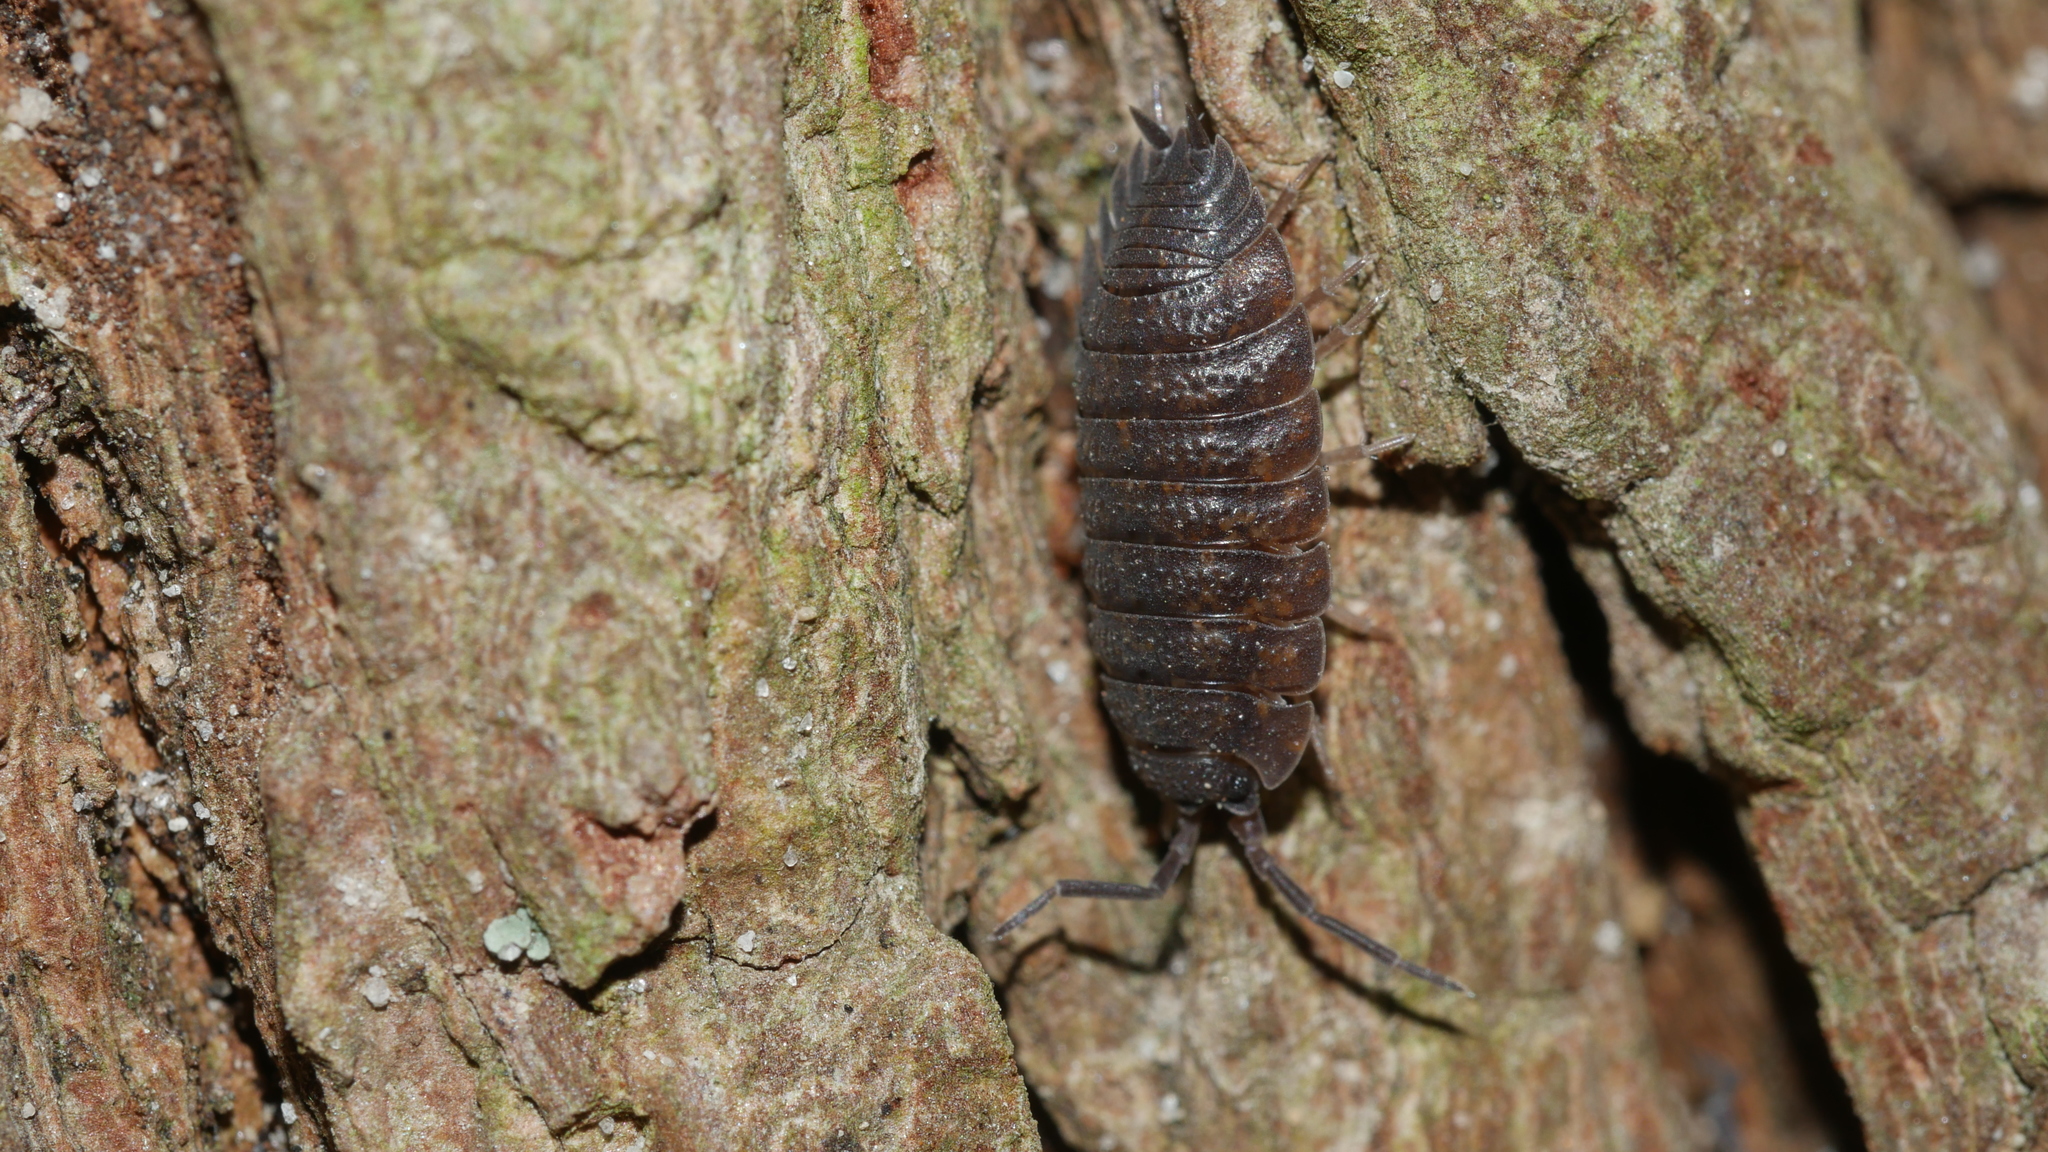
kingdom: Animalia
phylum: Arthropoda
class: Malacostraca
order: Isopoda
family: Porcellionidae
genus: Porcellio
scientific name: Porcellio scaber
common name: Common rough woodlouse
